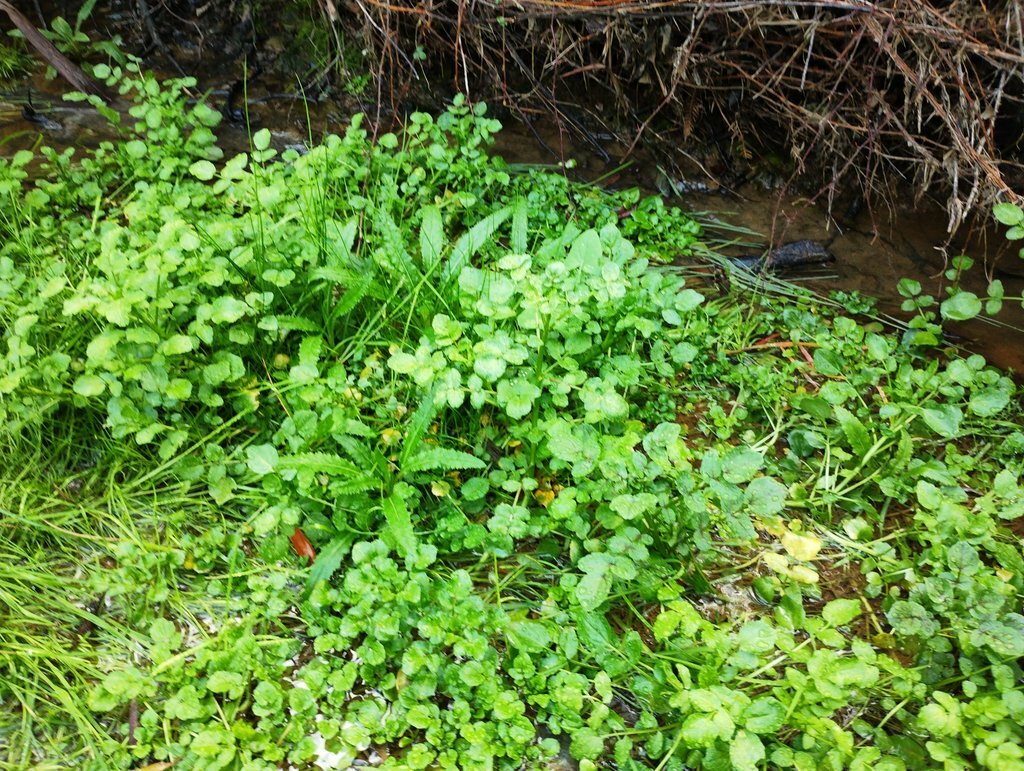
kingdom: Plantae
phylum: Tracheophyta
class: Magnoliopsida
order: Brassicales
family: Brassicaceae
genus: Nasturtium
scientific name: Nasturtium officinale
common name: Watercress
